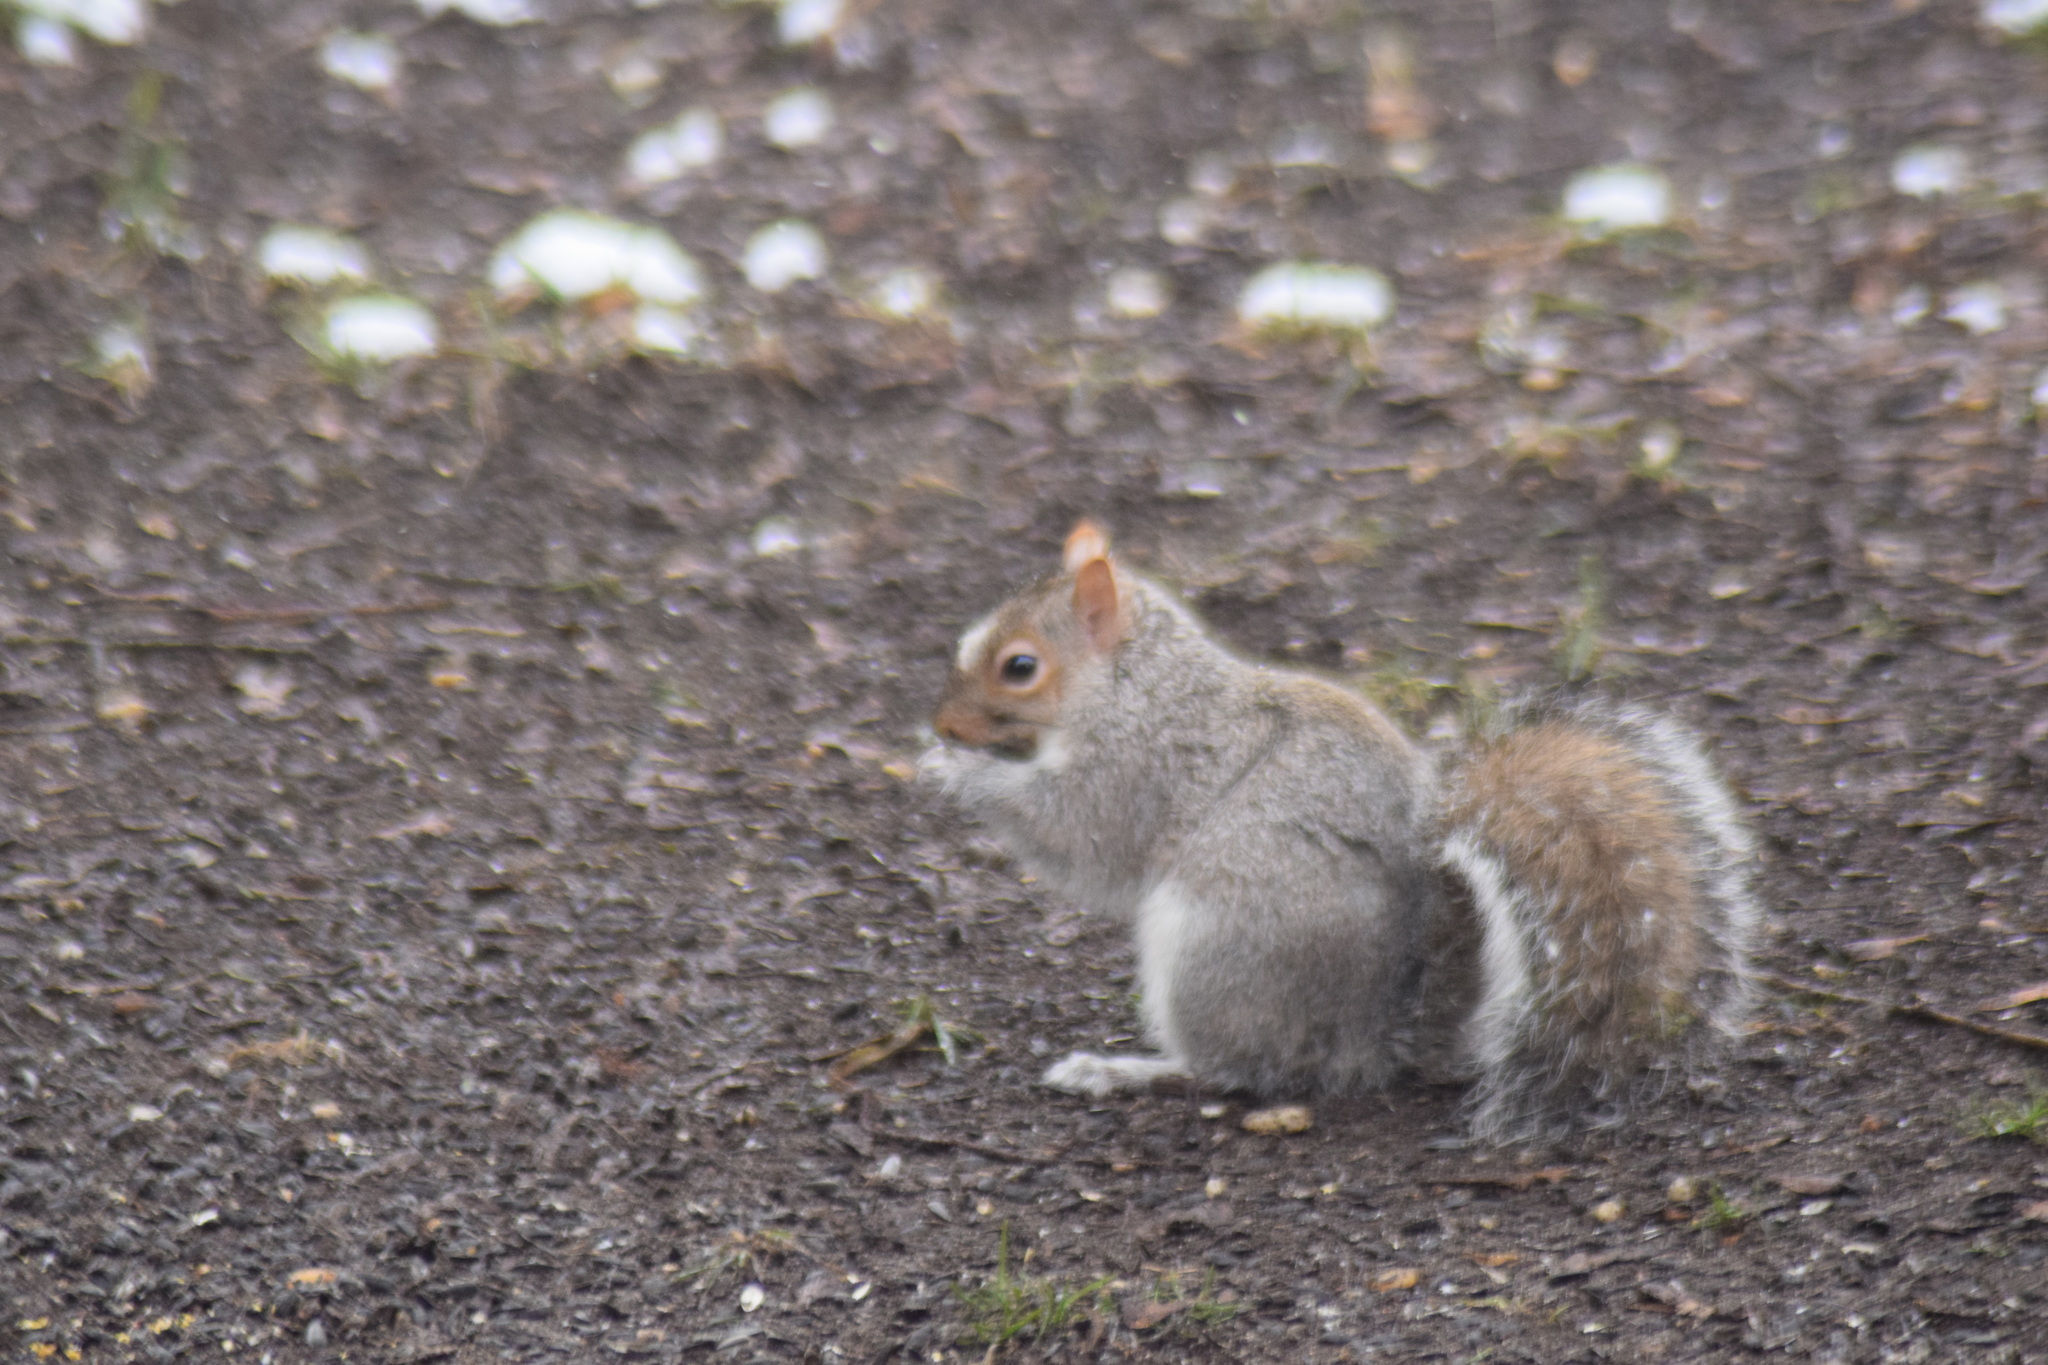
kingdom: Animalia
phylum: Chordata
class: Mammalia
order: Rodentia
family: Sciuridae
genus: Sciurus
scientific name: Sciurus carolinensis
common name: Eastern gray squirrel
